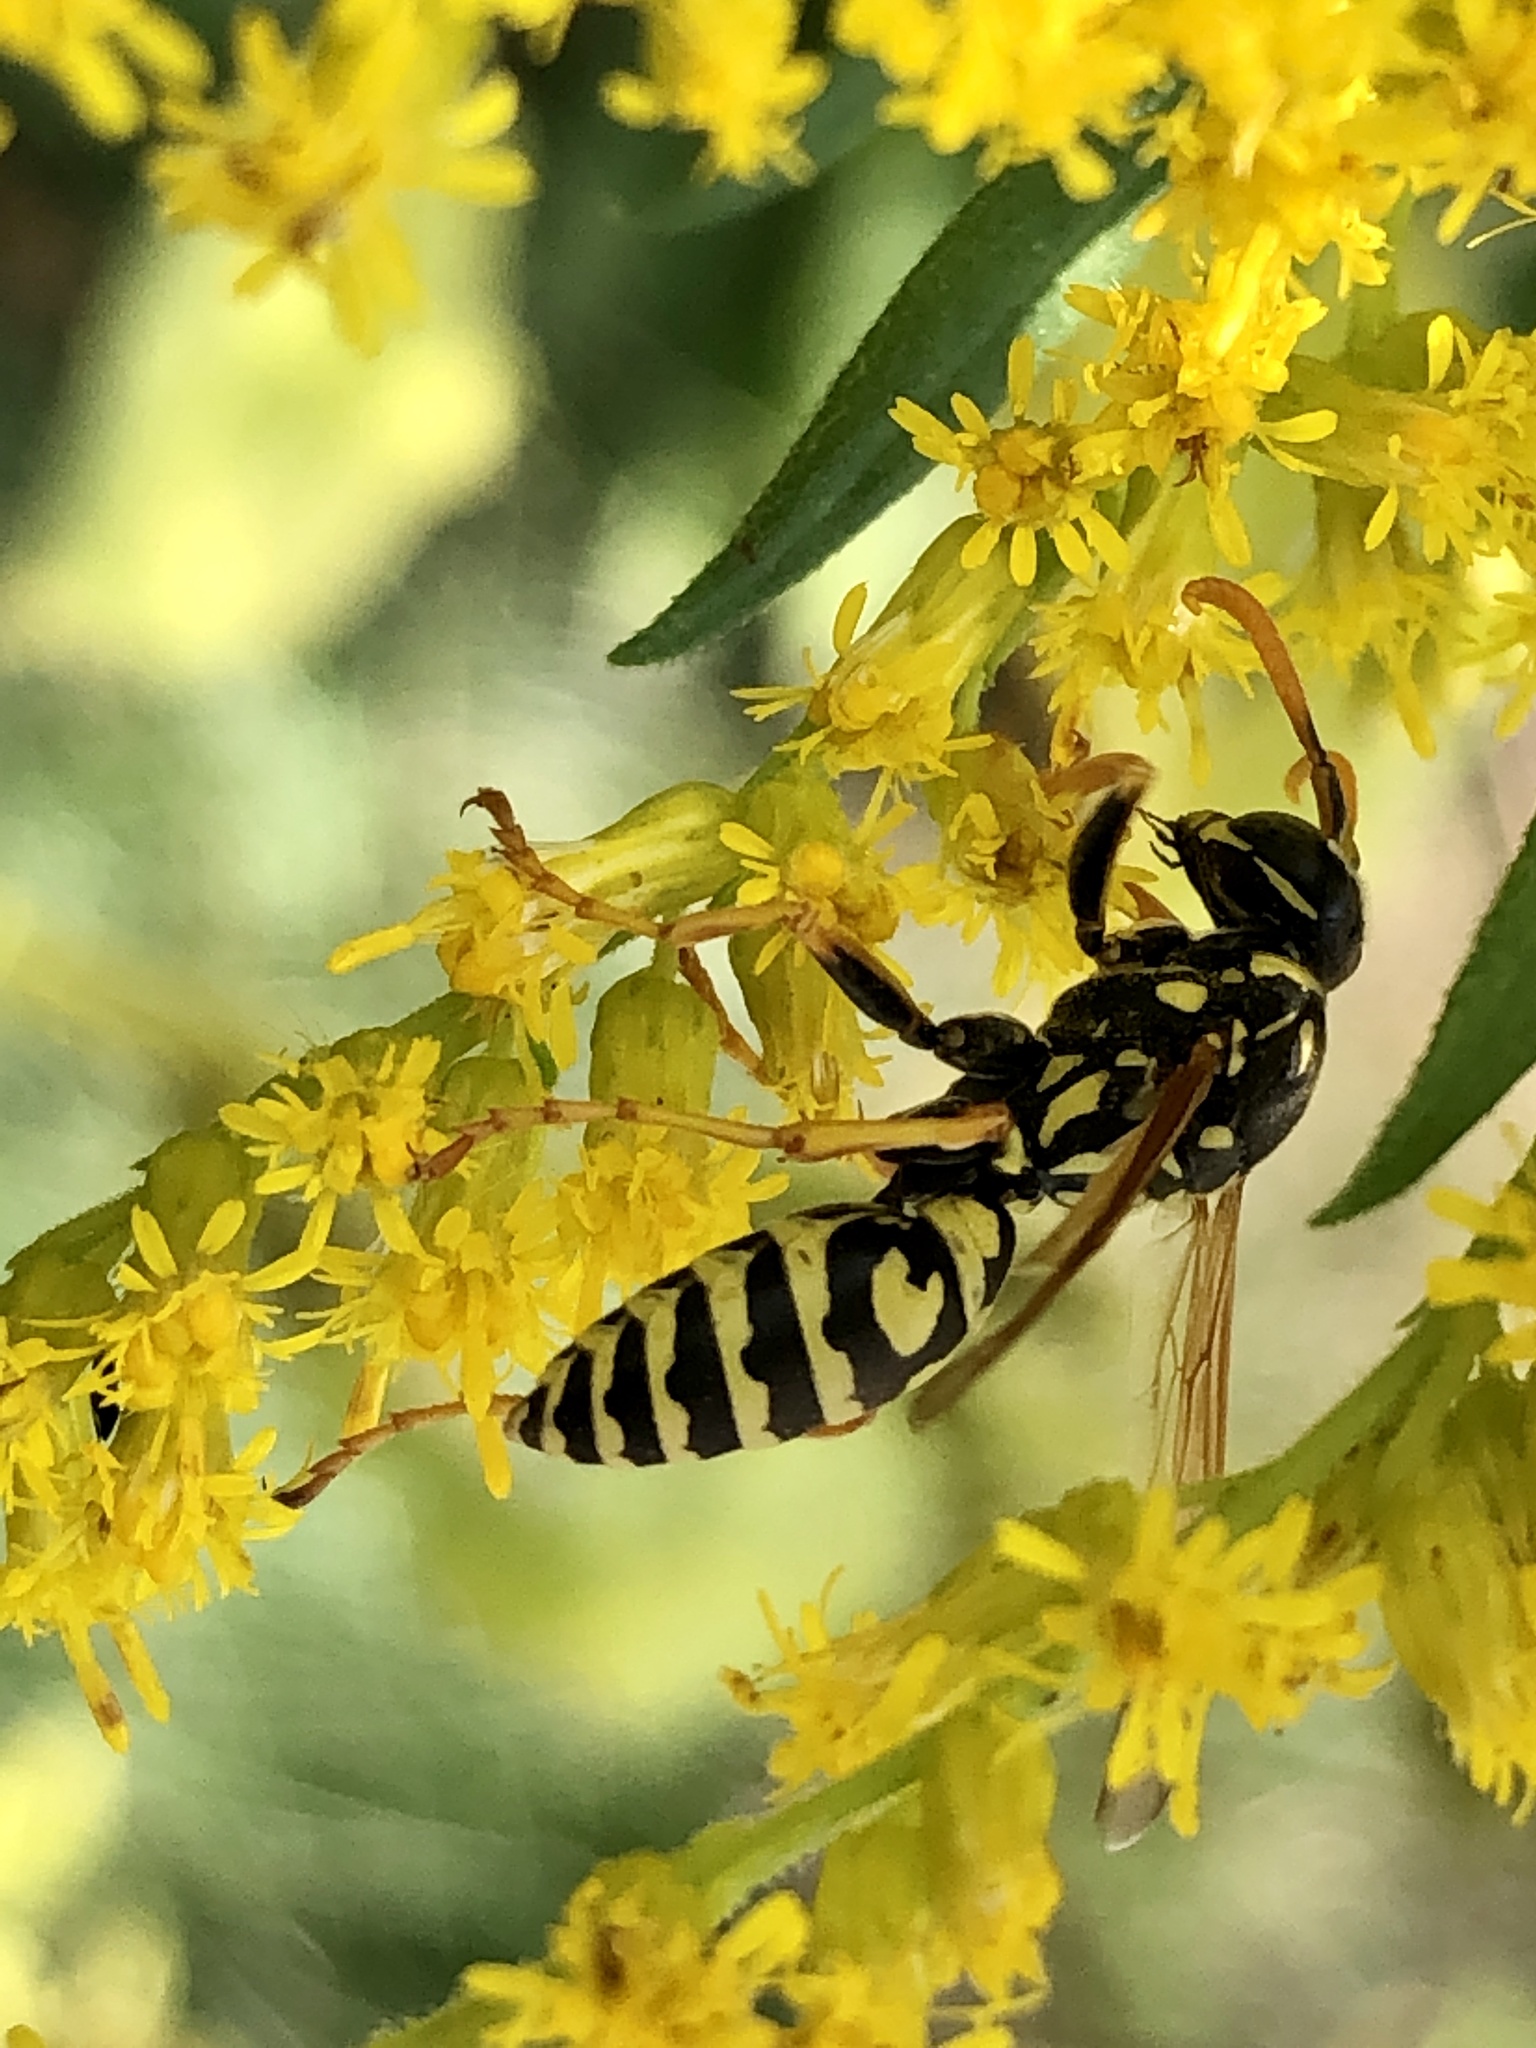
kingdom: Animalia
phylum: Arthropoda
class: Insecta
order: Hymenoptera
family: Eumenidae
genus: Polistes
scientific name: Polistes dominula
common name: Paper wasp
